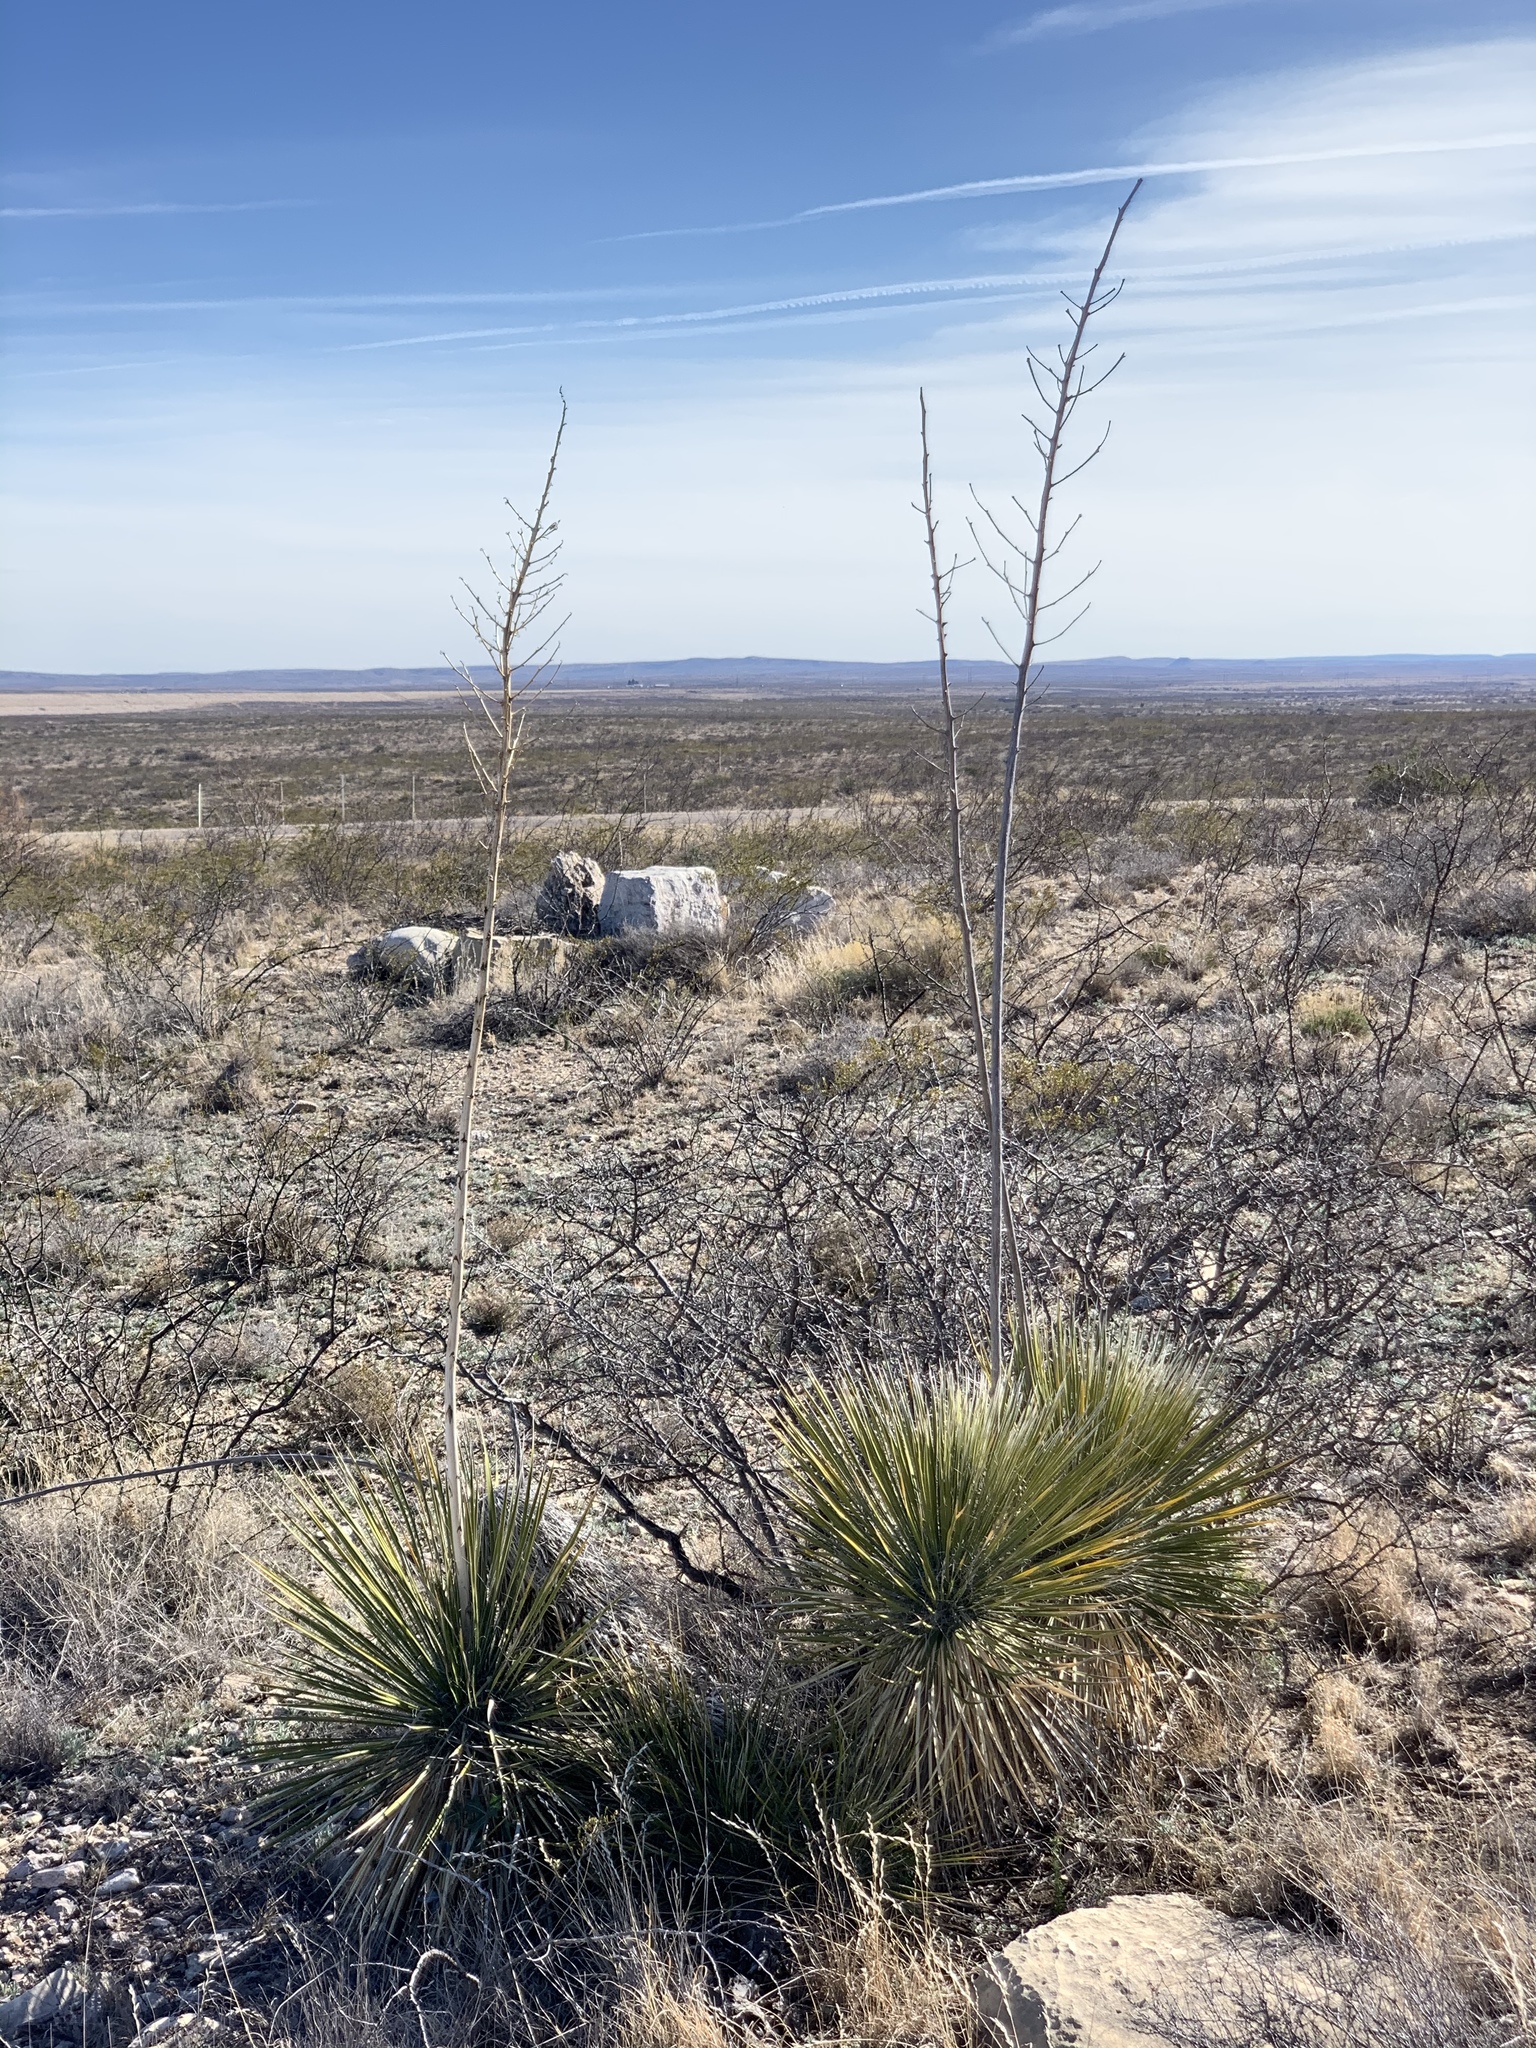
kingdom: Plantae
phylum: Tracheophyta
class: Liliopsida
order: Asparagales
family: Asparagaceae
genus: Yucca
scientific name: Yucca elata
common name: Palmella
